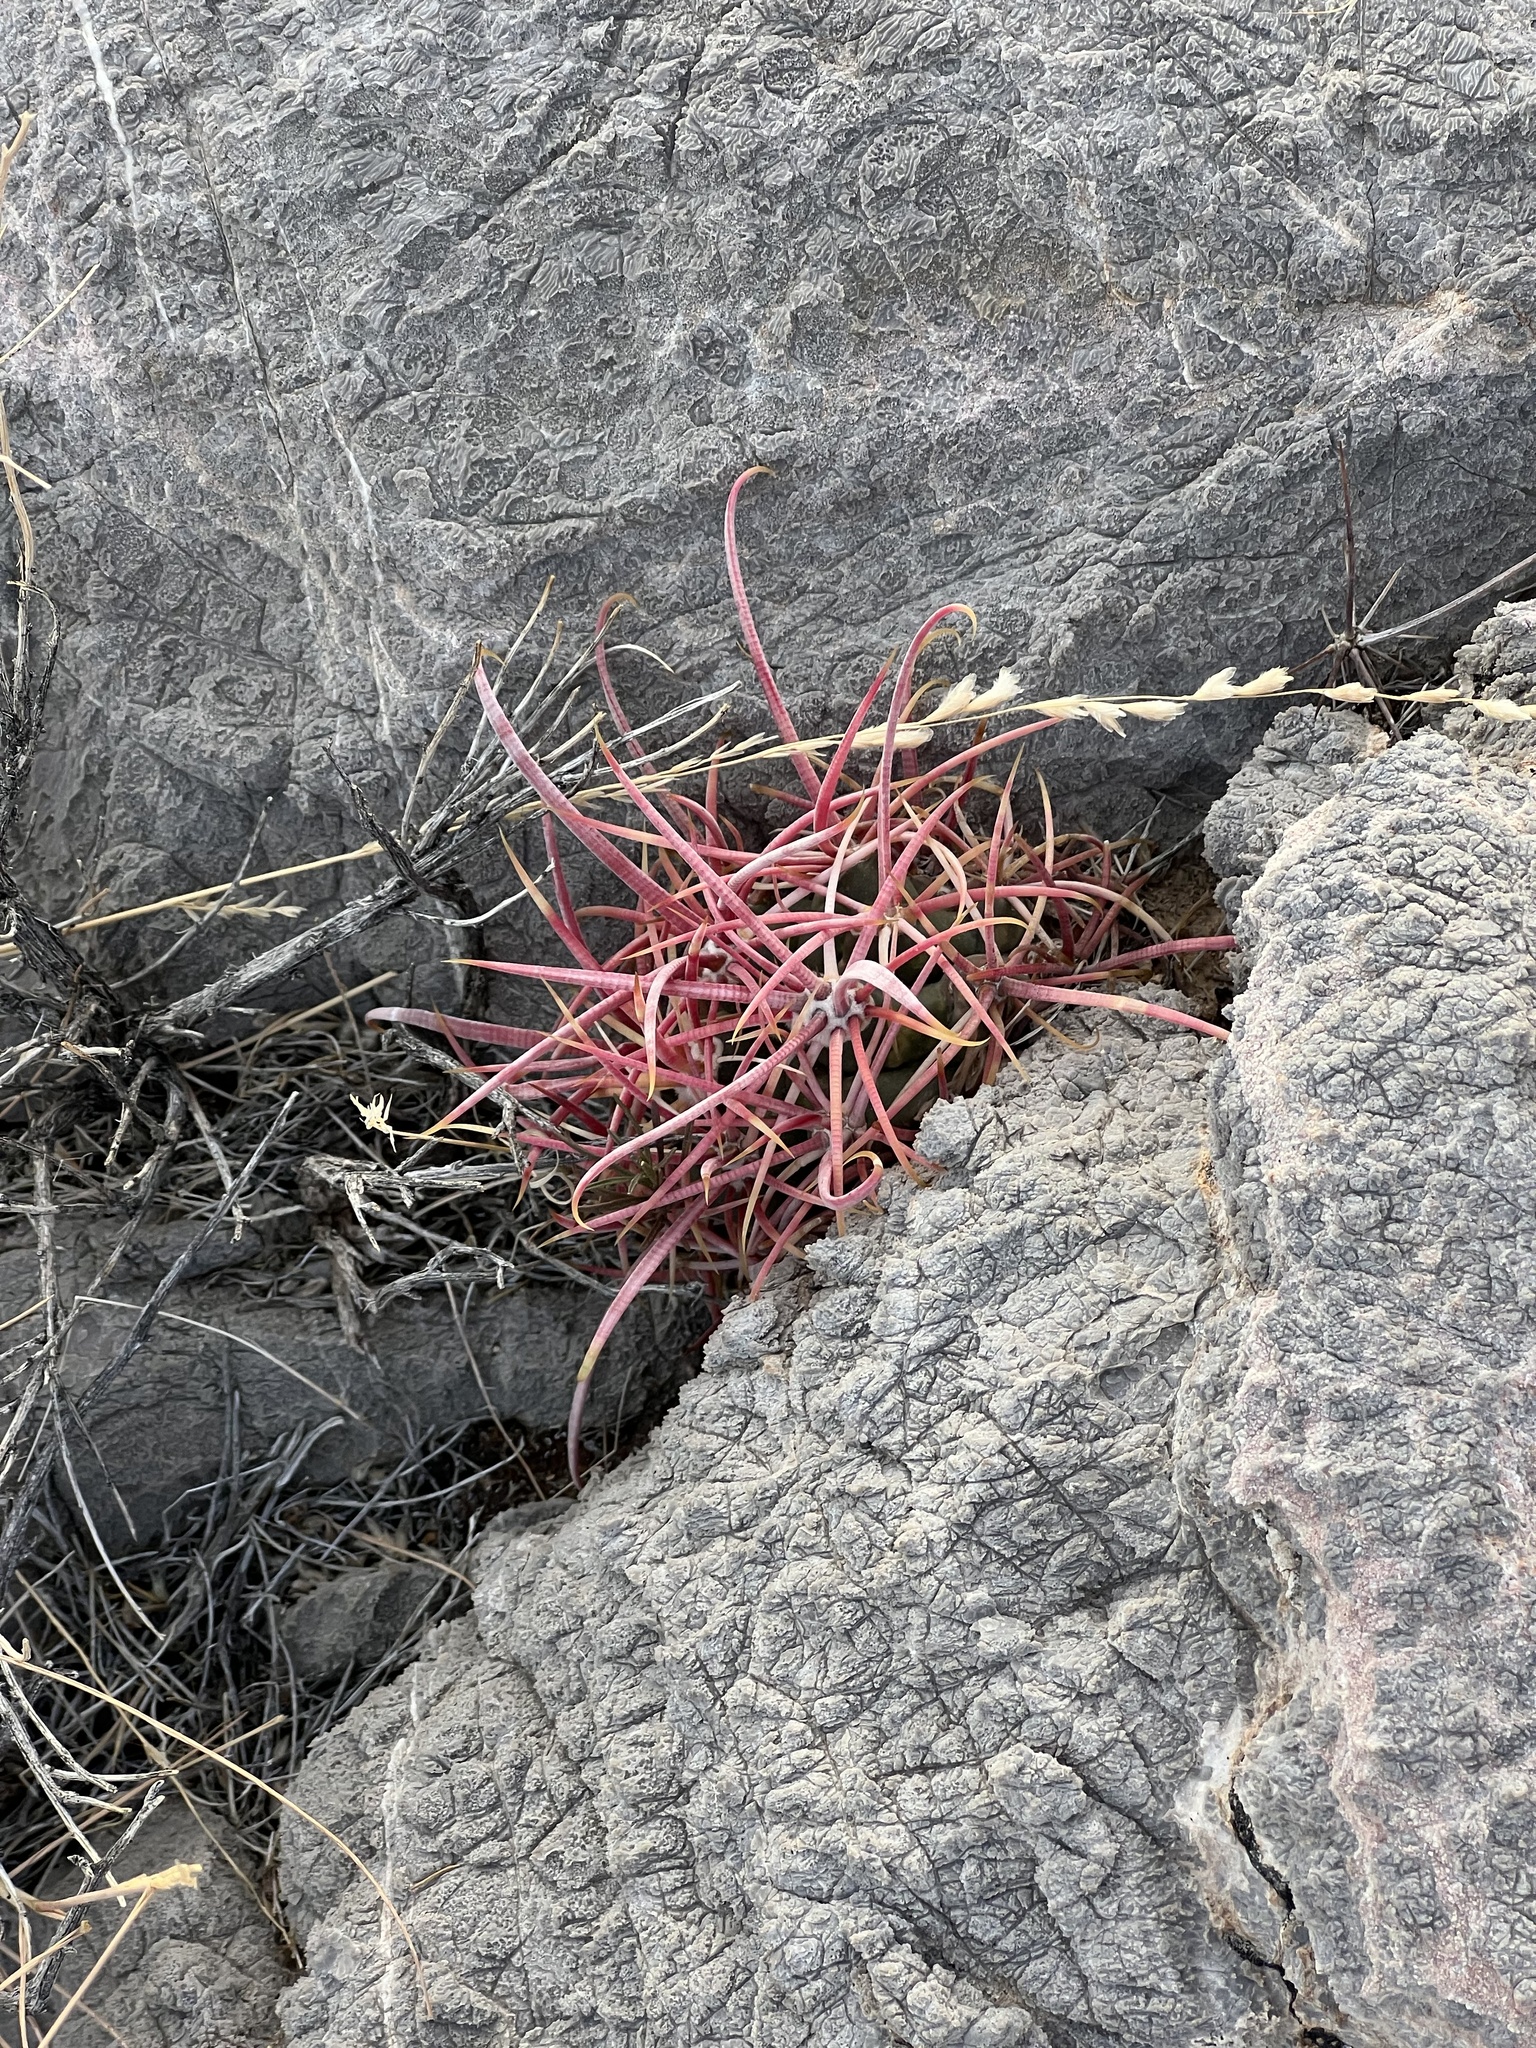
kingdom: Plantae
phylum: Tracheophyta
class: Magnoliopsida
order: Caryophyllales
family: Cactaceae
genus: Ferocactus
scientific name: Ferocactus cylindraceus
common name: California barrel cactus
